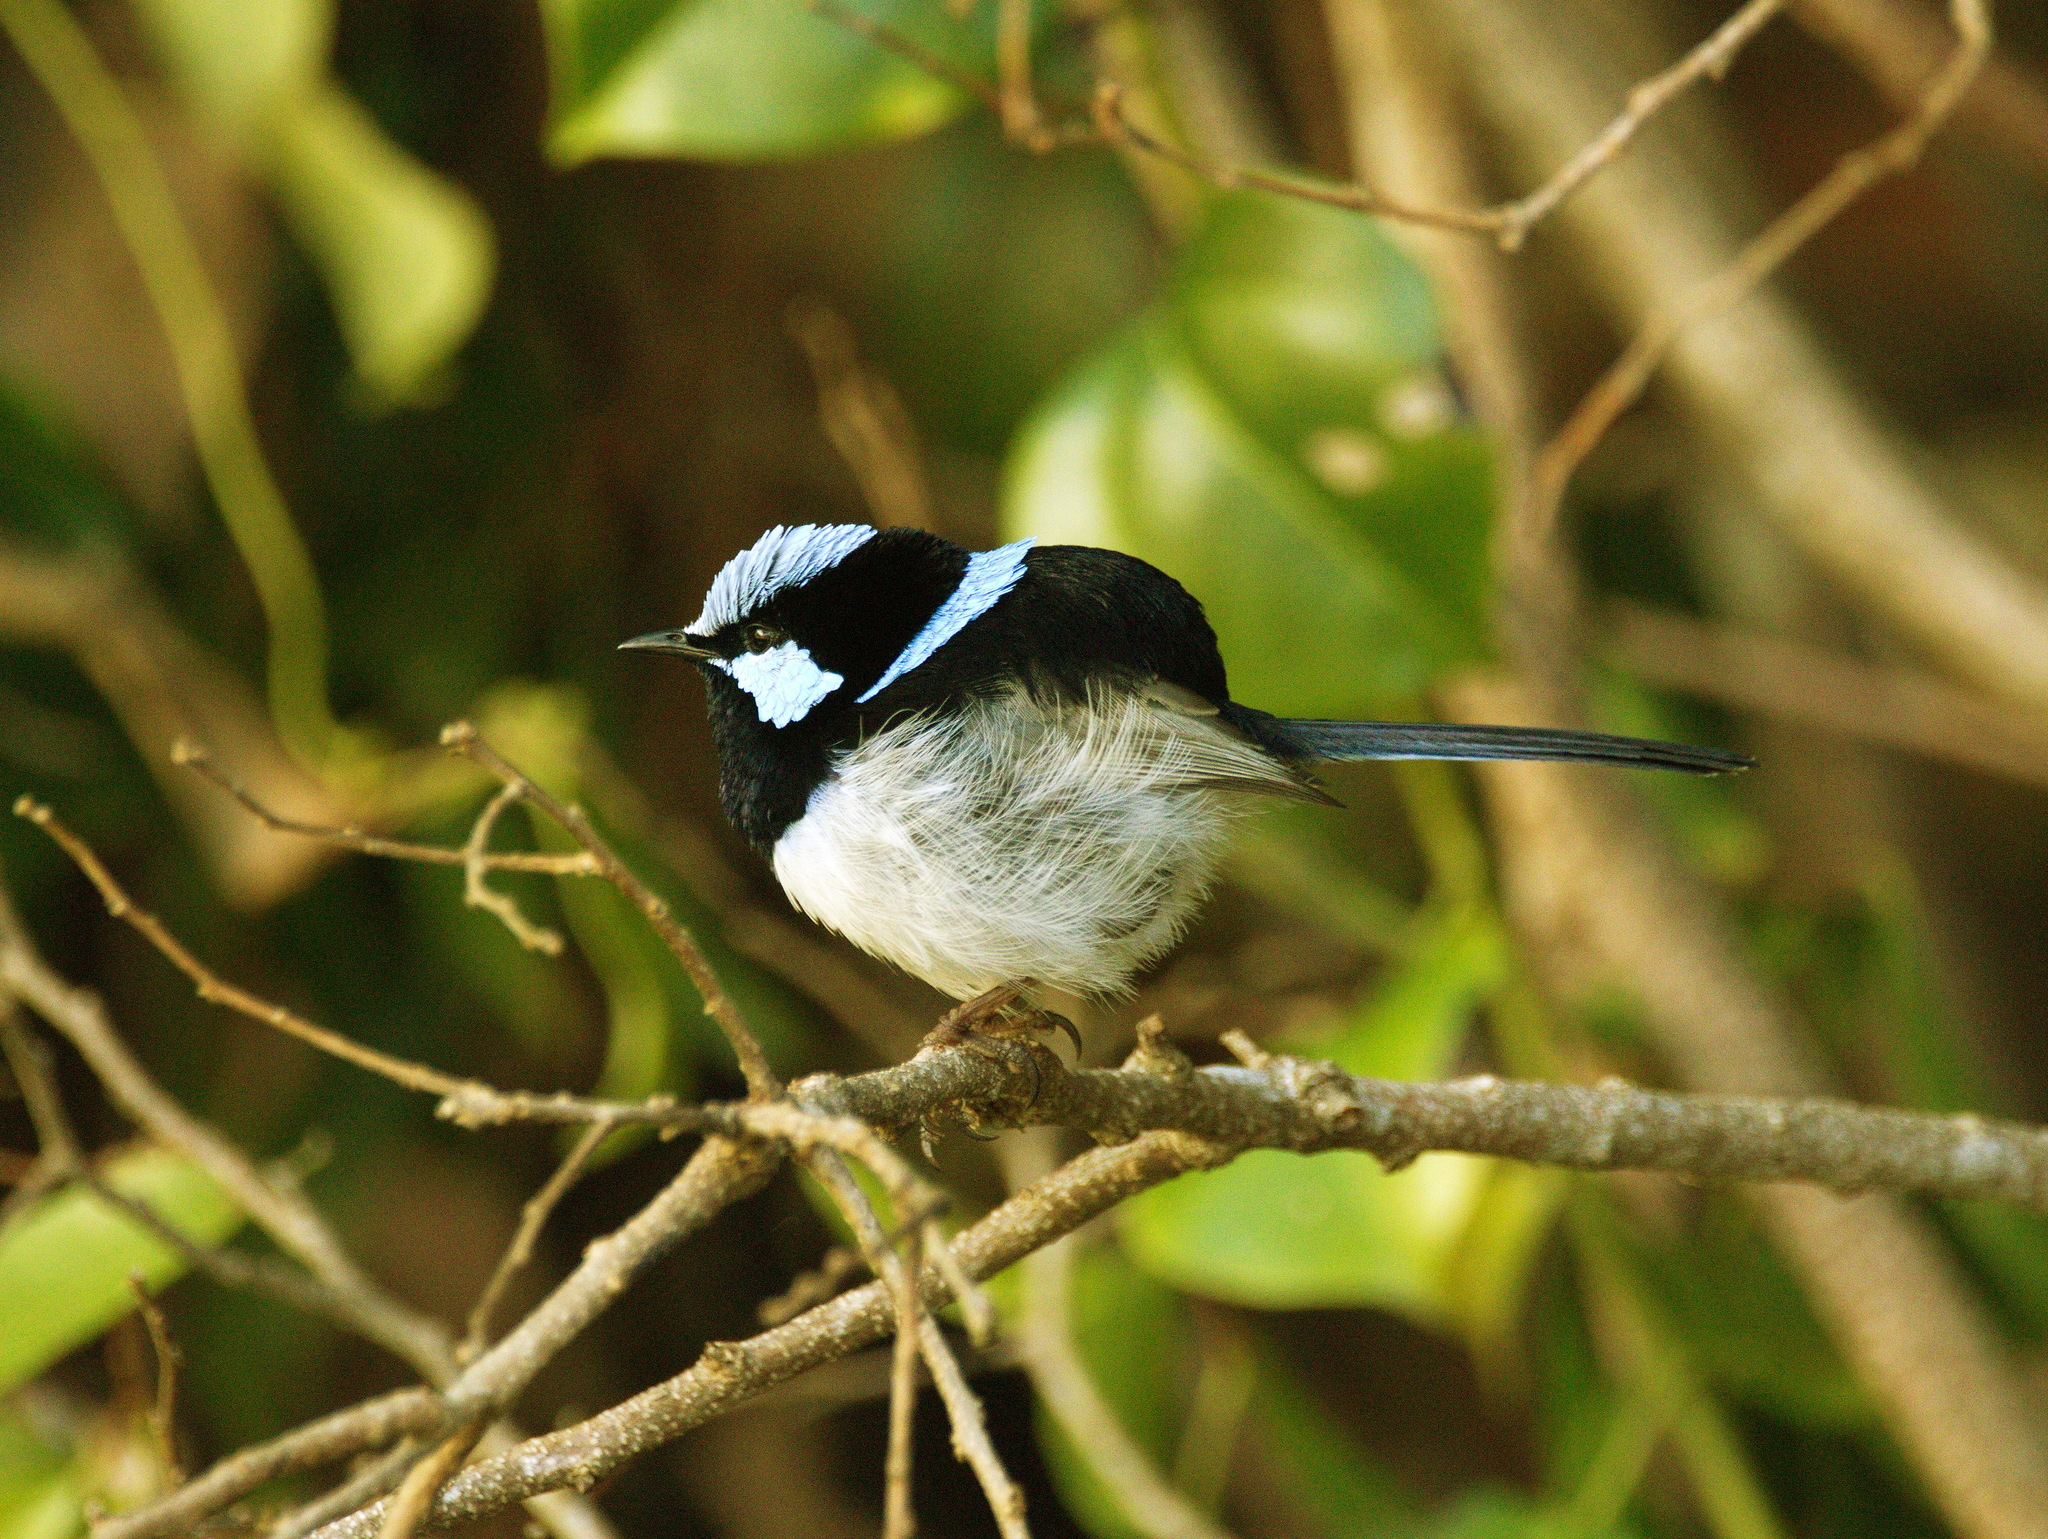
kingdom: Animalia
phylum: Chordata
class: Aves
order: Passeriformes
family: Maluridae
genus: Malurus
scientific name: Malurus cyaneus
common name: Superb fairywren
